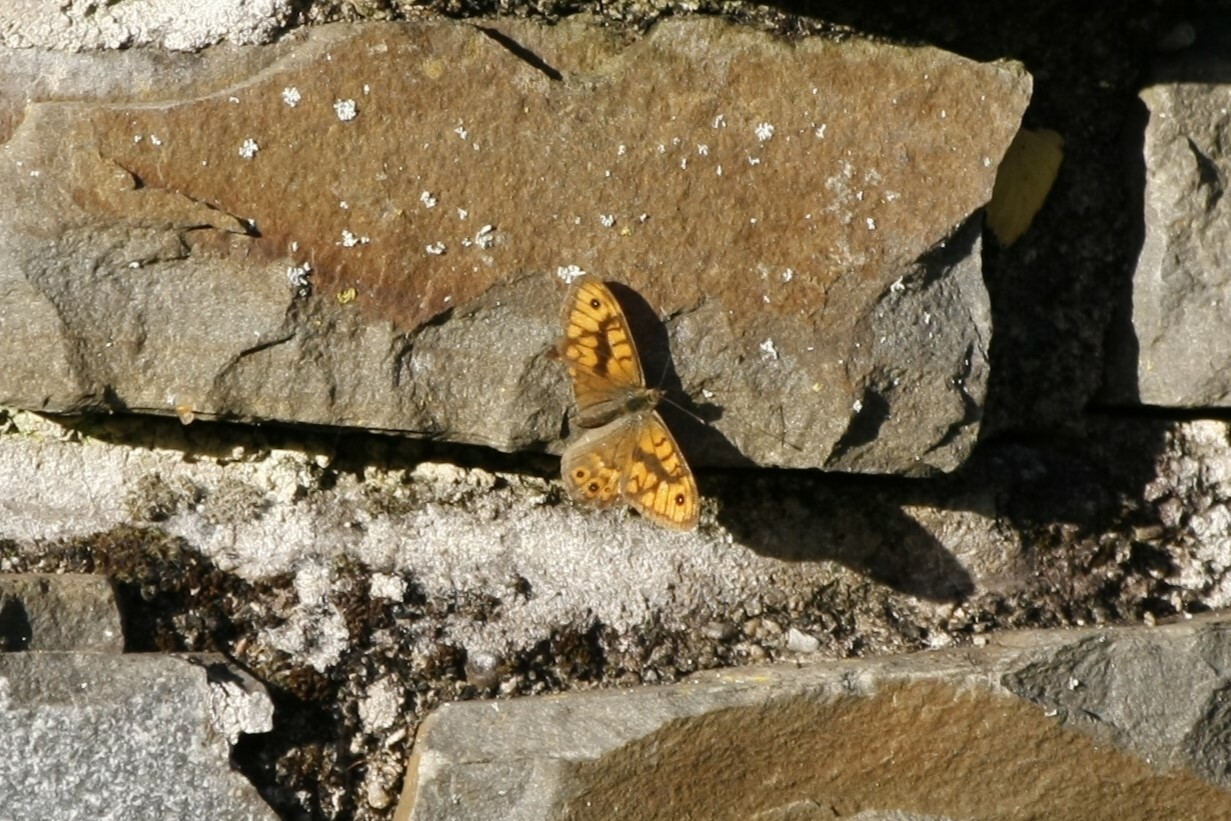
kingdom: Animalia
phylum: Arthropoda
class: Insecta
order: Lepidoptera
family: Nymphalidae
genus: Pararge
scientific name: Pararge Lasiommata megera
